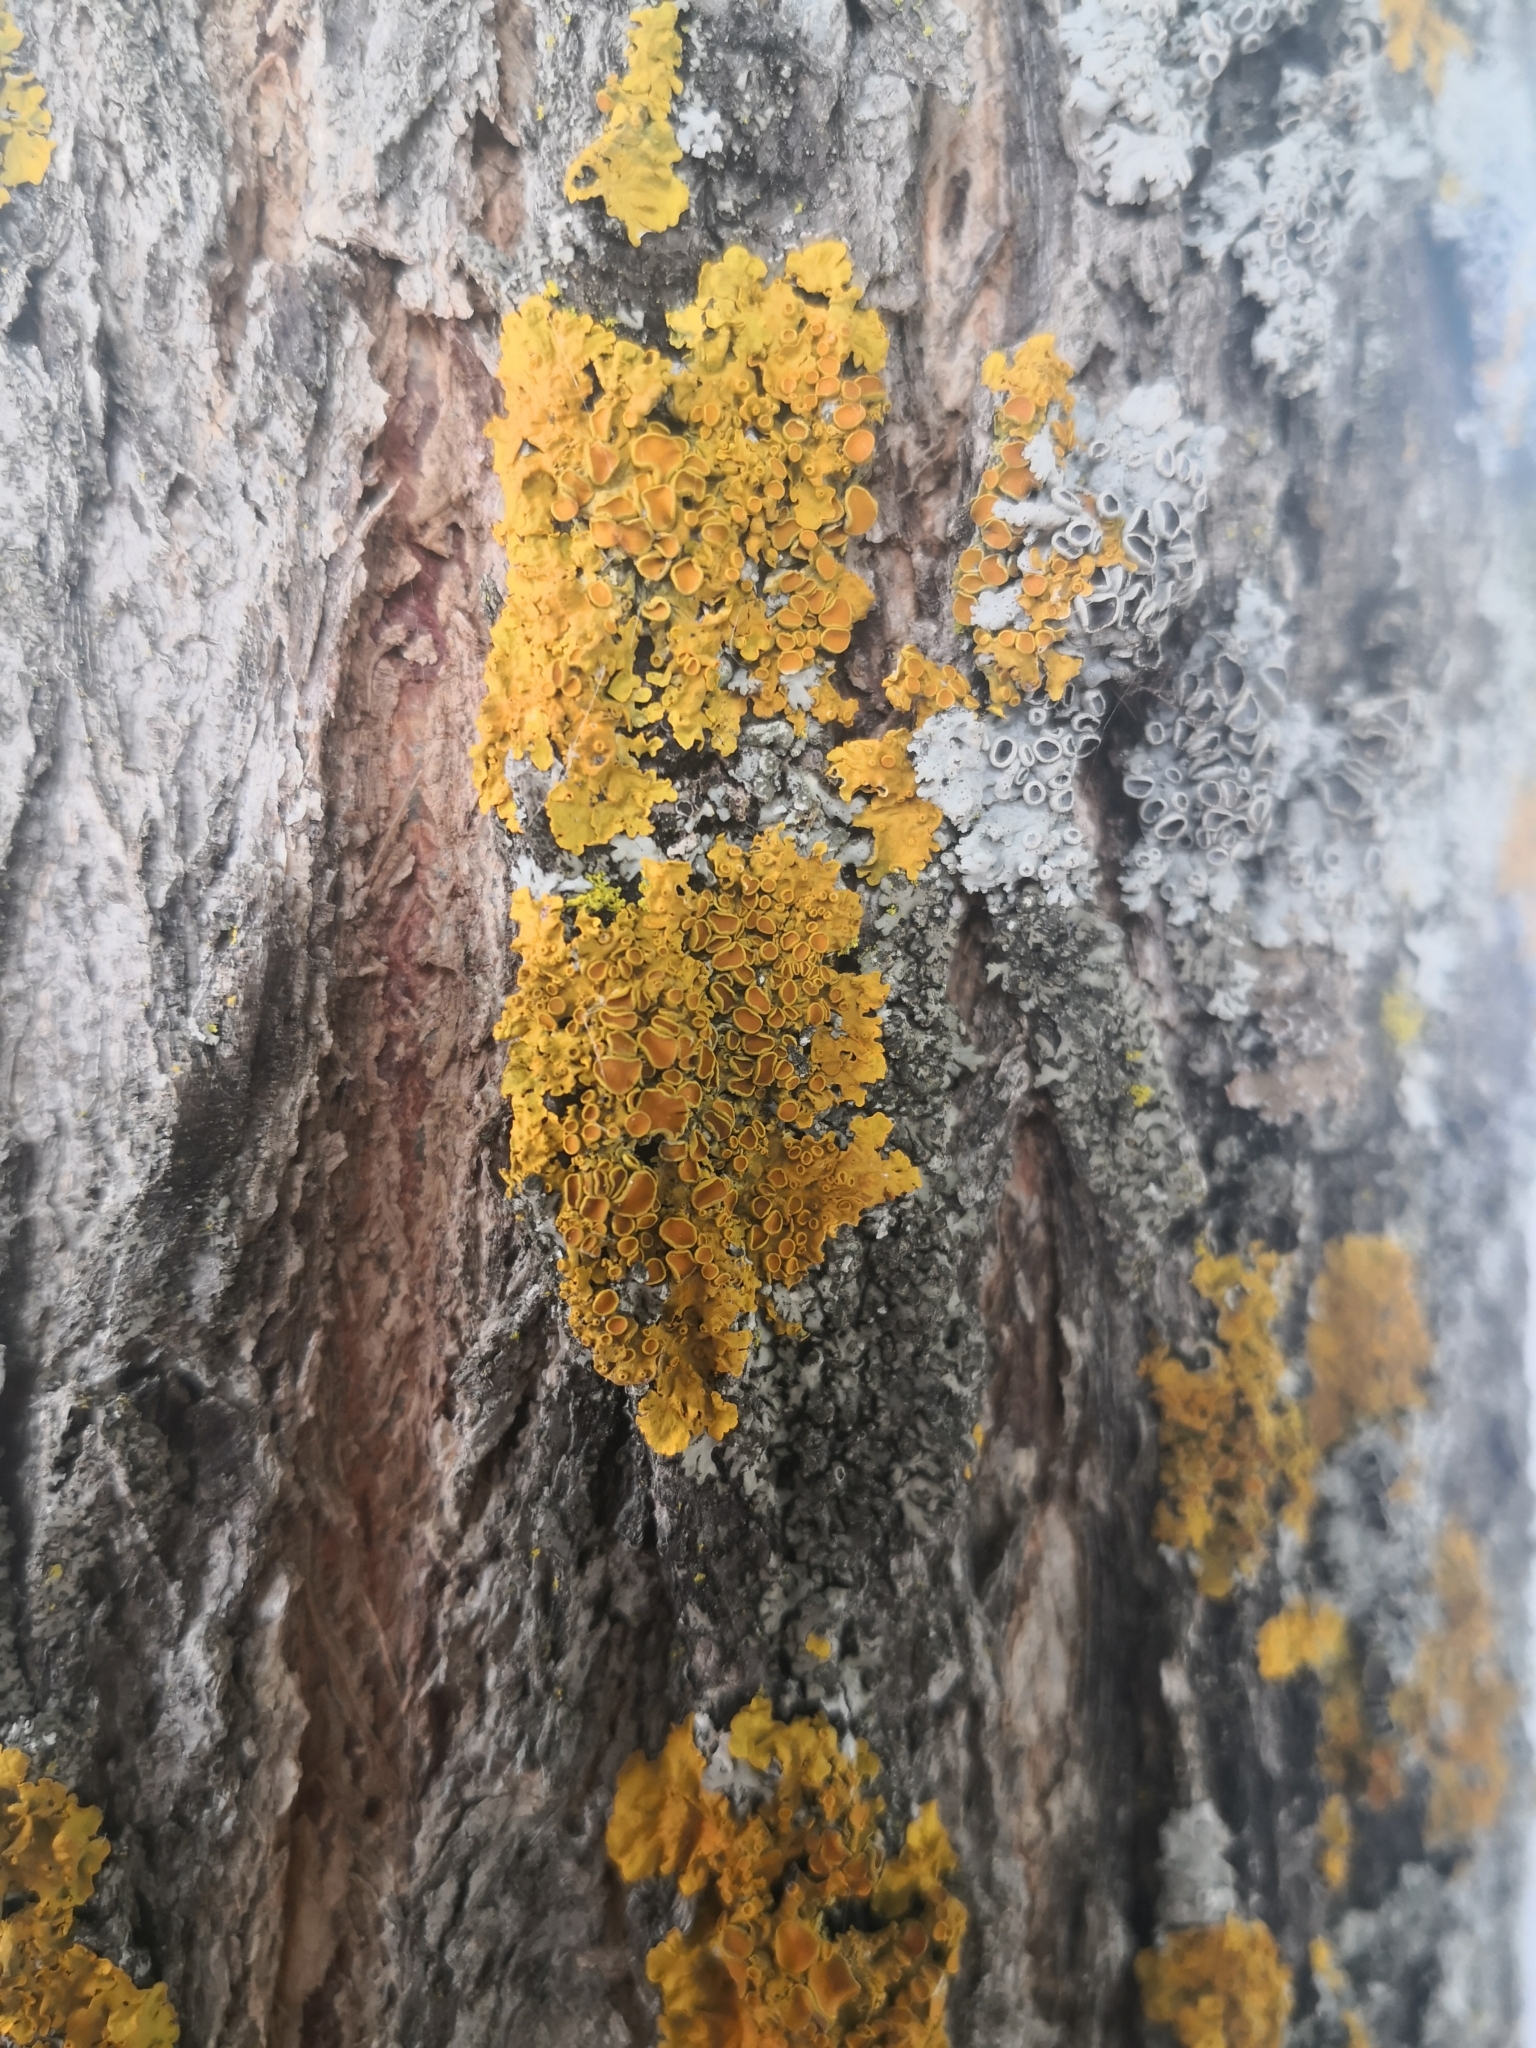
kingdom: Fungi
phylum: Ascomycota
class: Lecanoromycetes
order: Teloschistales
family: Teloschistaceae
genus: Xanthoria
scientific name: Xanthoria parietina
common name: Common orange lichen
